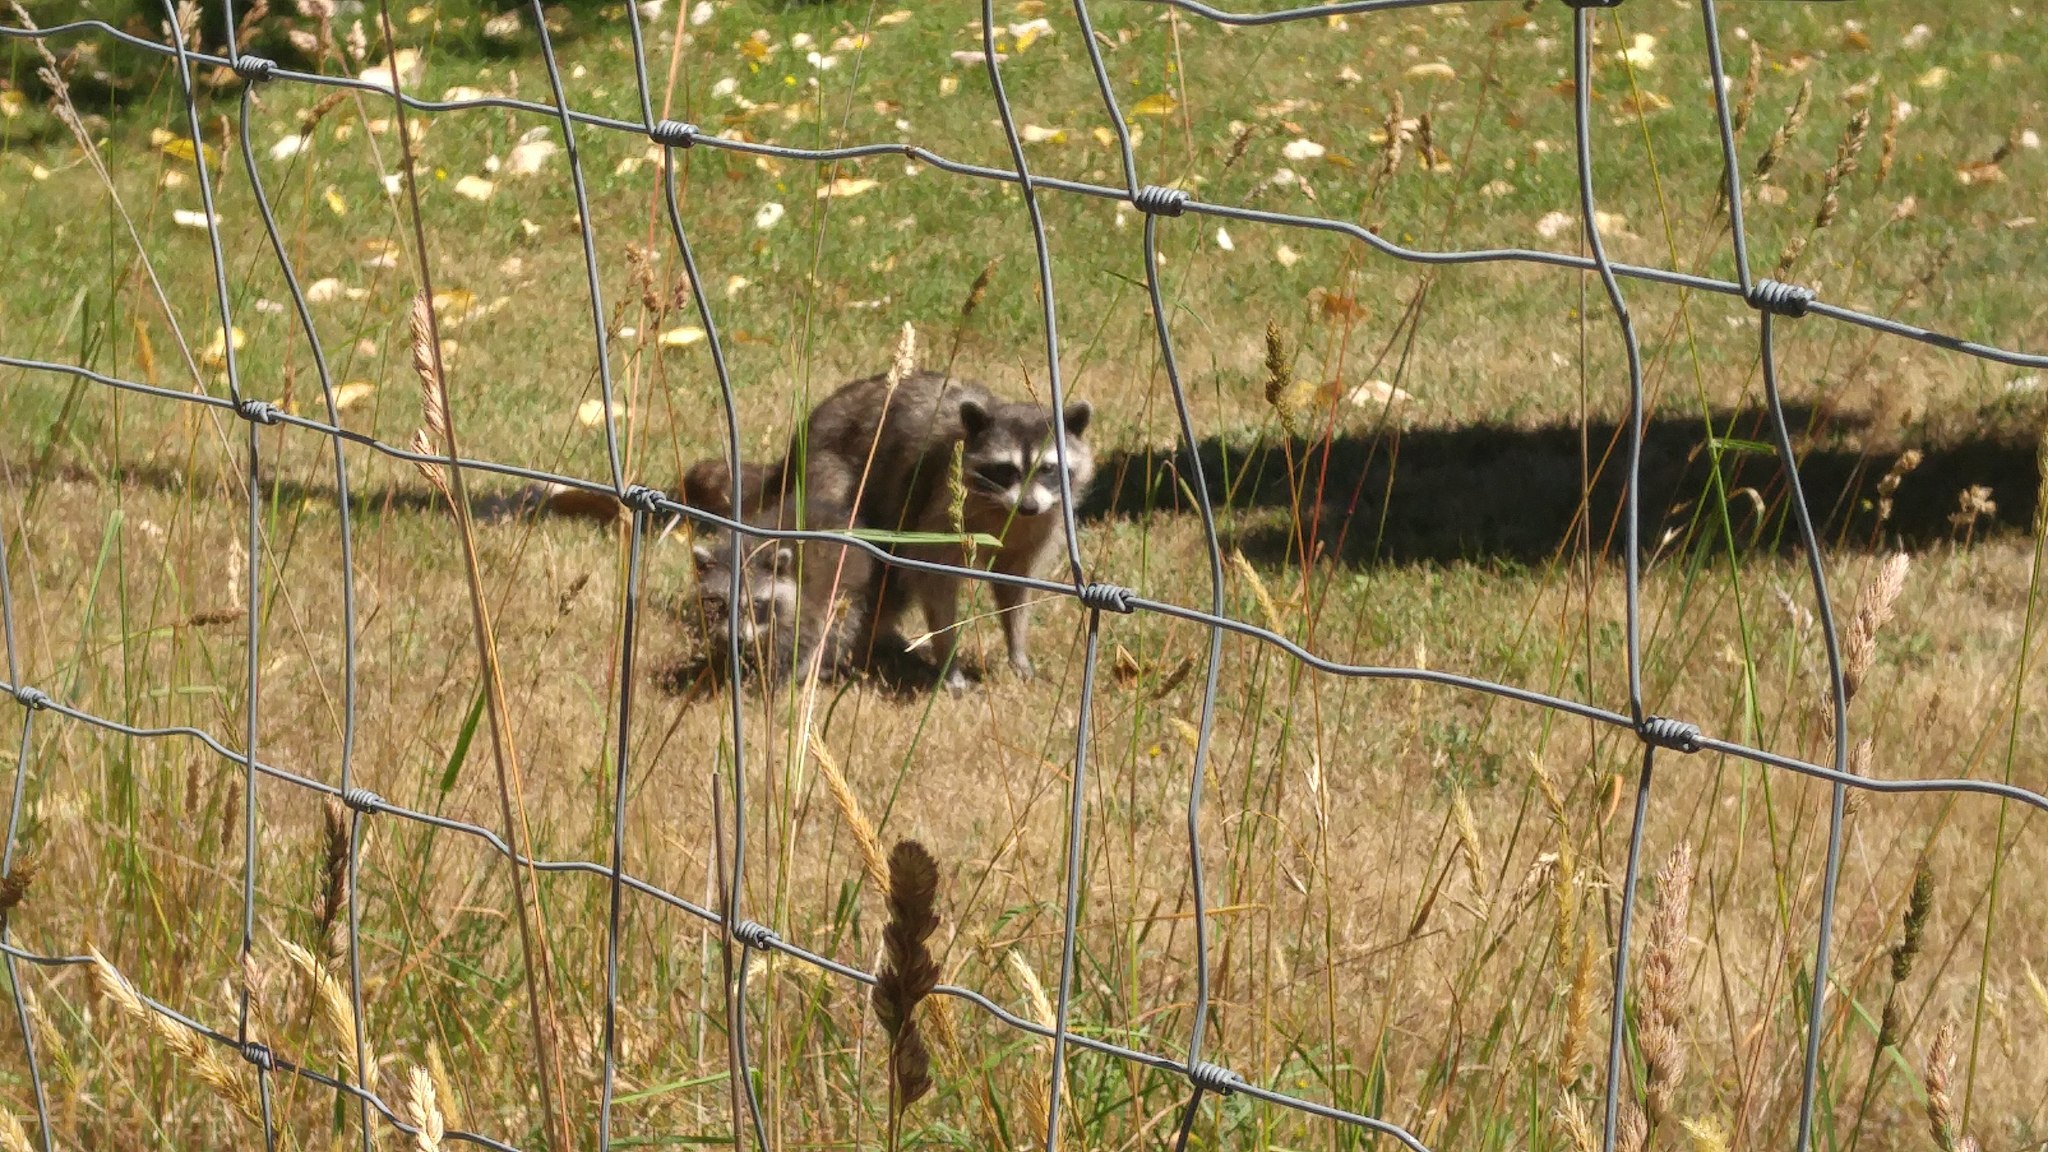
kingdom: Animalia
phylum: Chordata
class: Mammalia
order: Carnivora
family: Procyonidae
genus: Procyon
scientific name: Procyon lotor
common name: Raccoon
